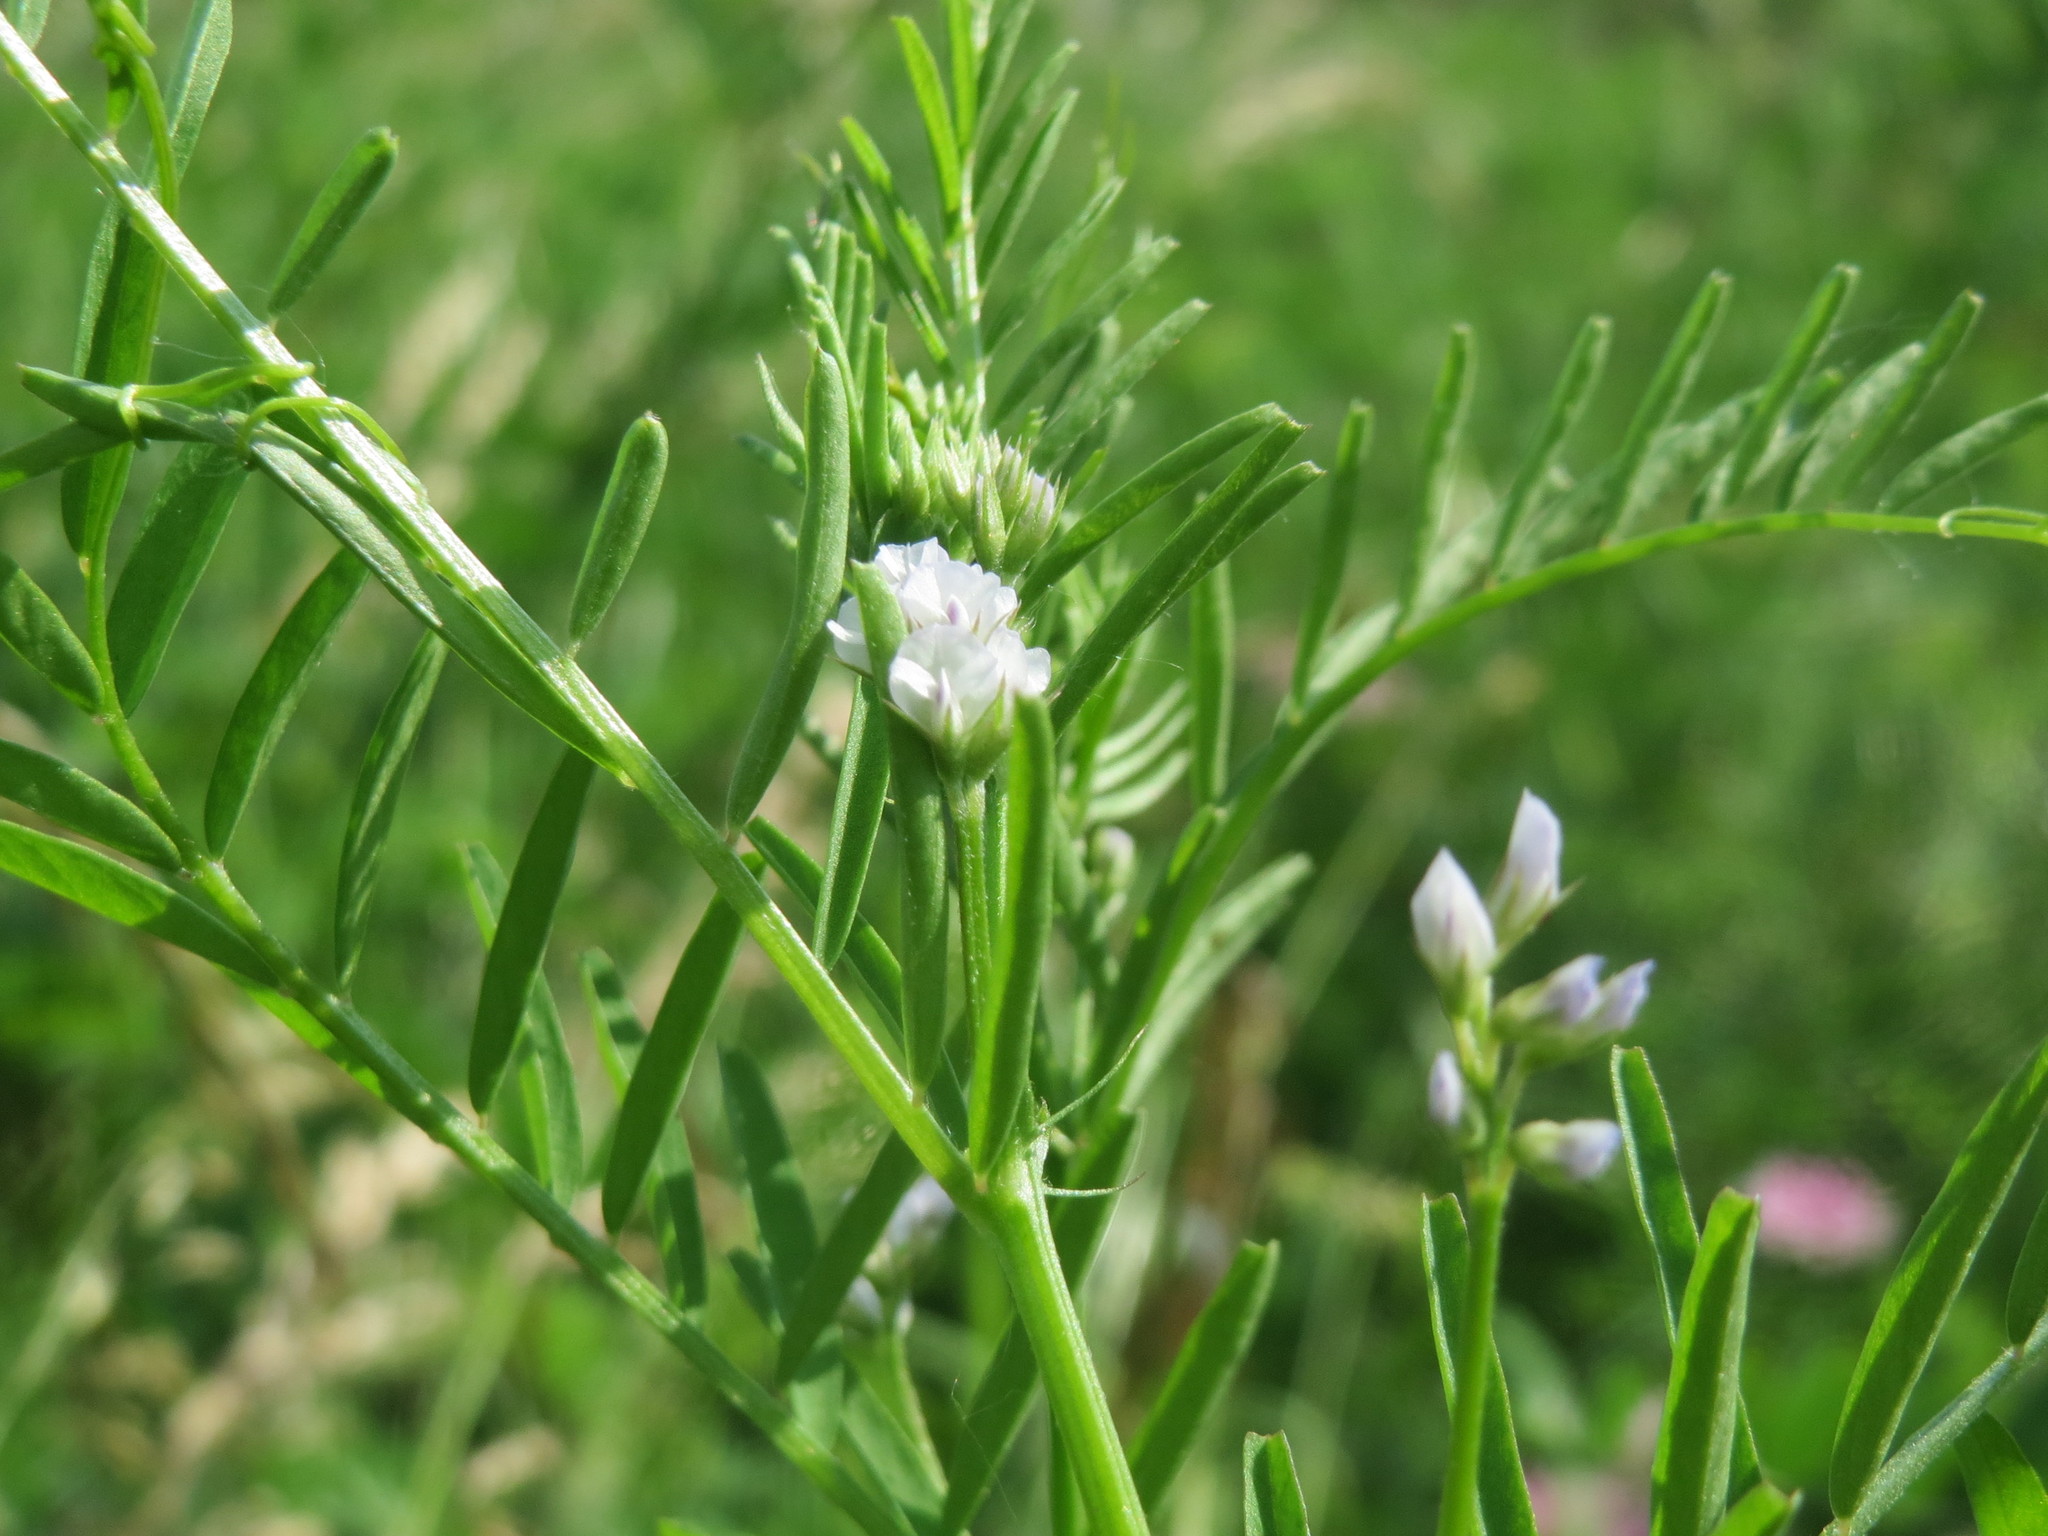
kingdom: Plantae
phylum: Tracheophyta
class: Magnoliopsida
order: Fabales
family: Fabaceae
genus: Vicia
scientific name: Vicia hirsuta
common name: Tiny vetch
